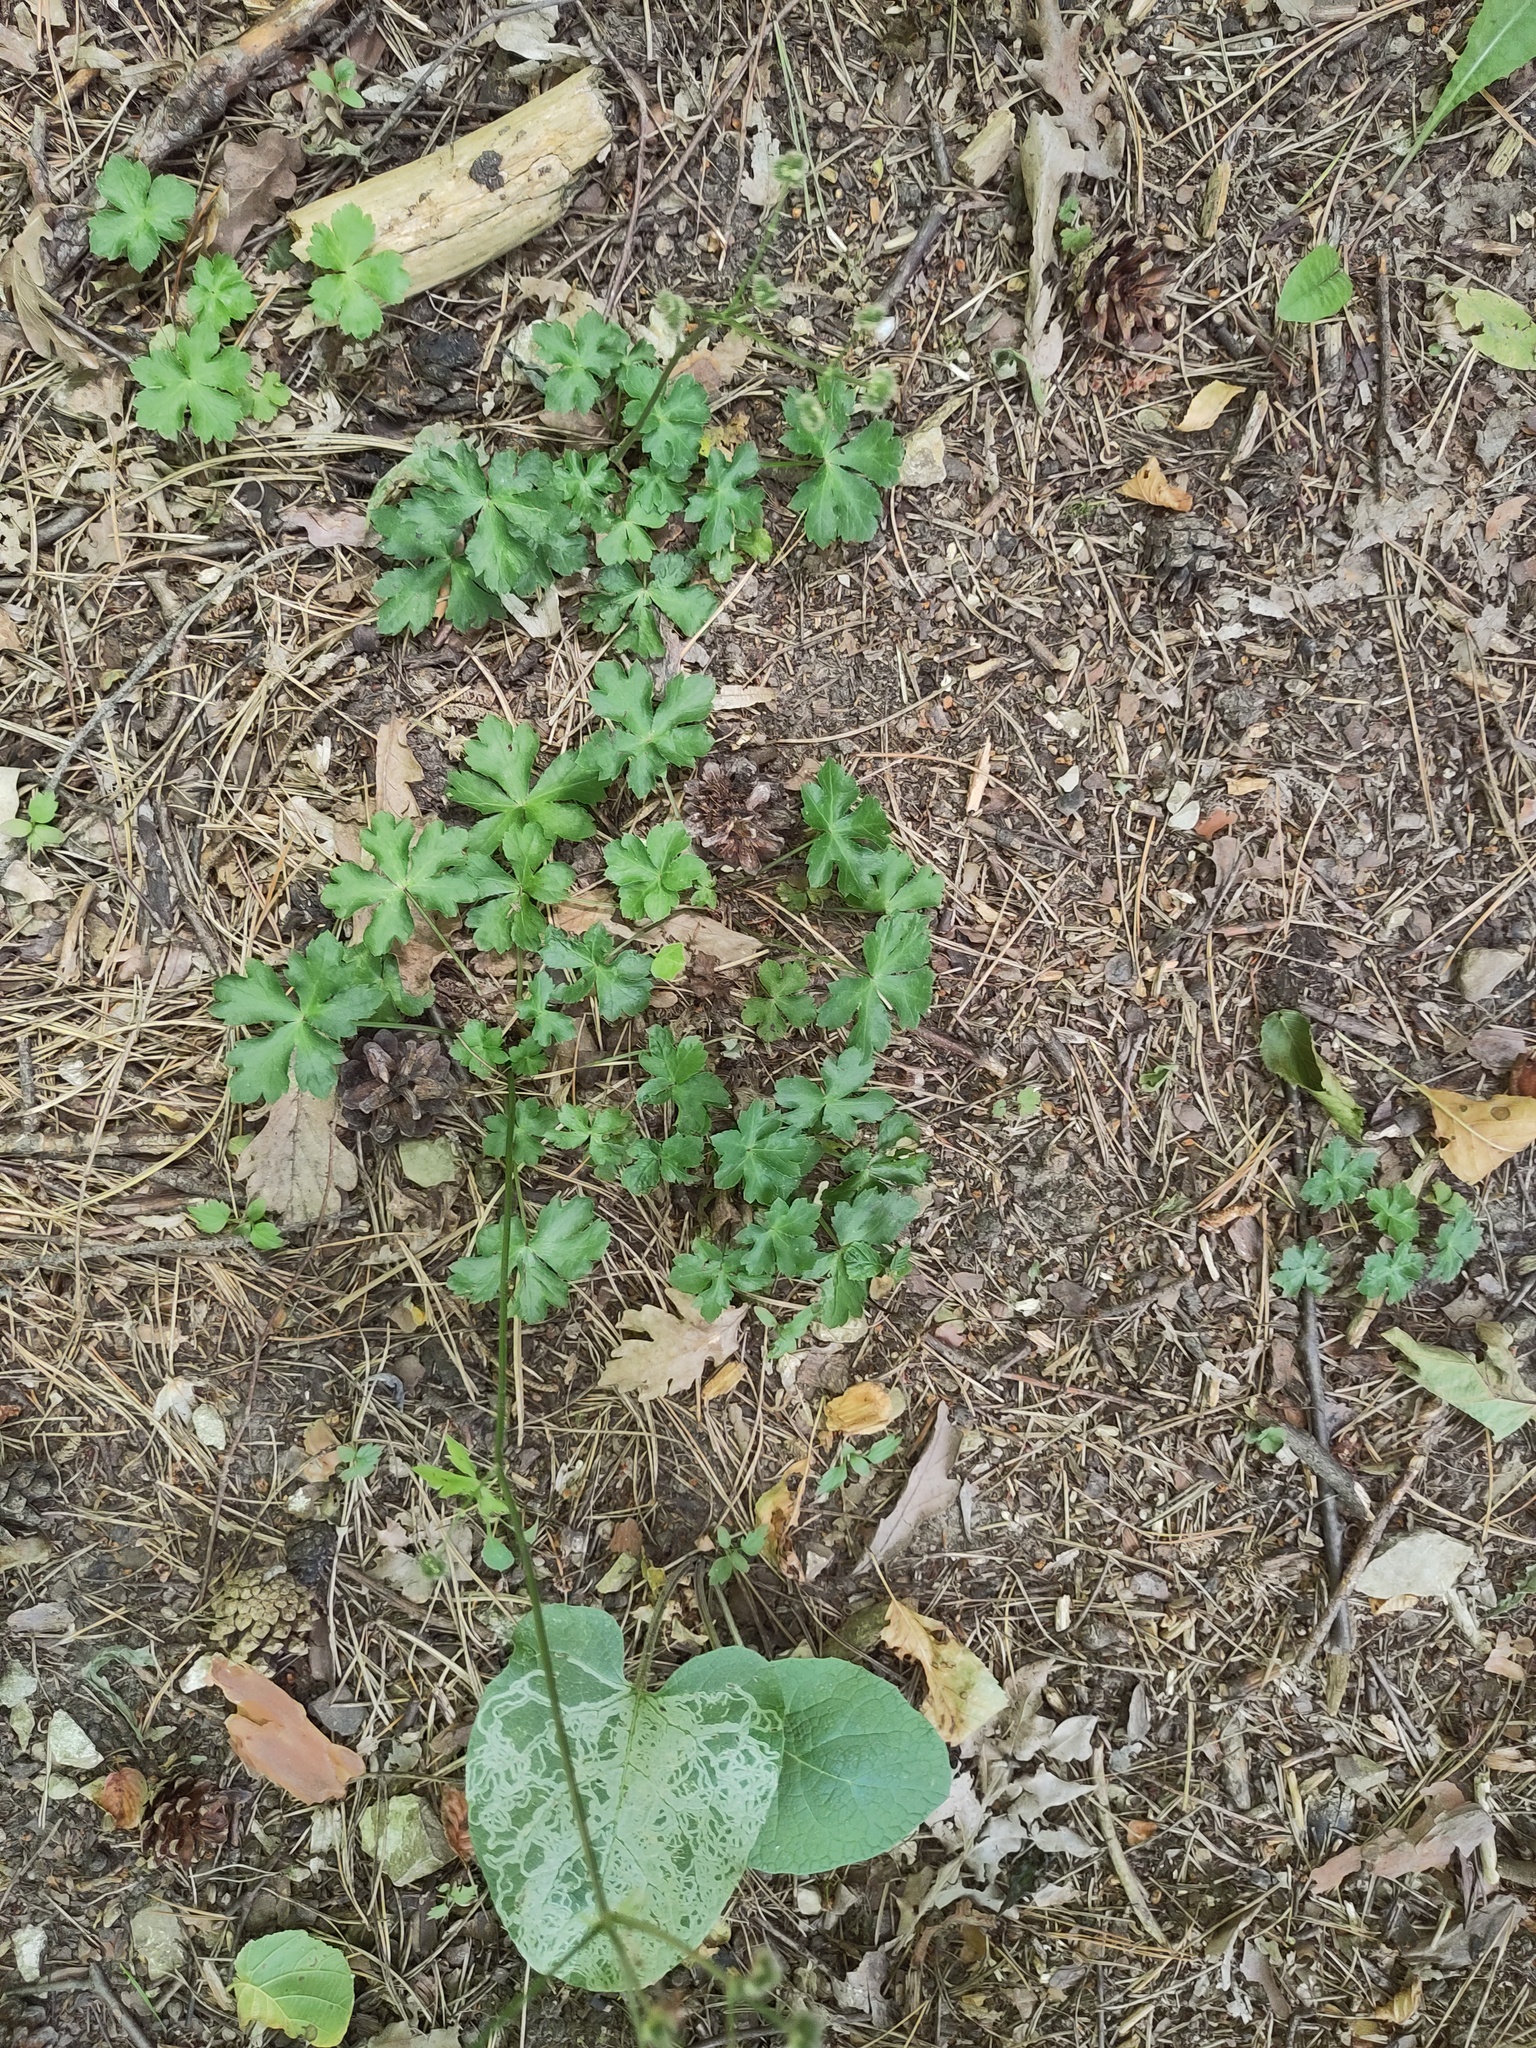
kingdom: Plantae
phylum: Tracheophyta
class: Magnoliopsida
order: Apiales
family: Apiaceae
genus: Sanicula
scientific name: Sanicula europaea
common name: Sanicle
